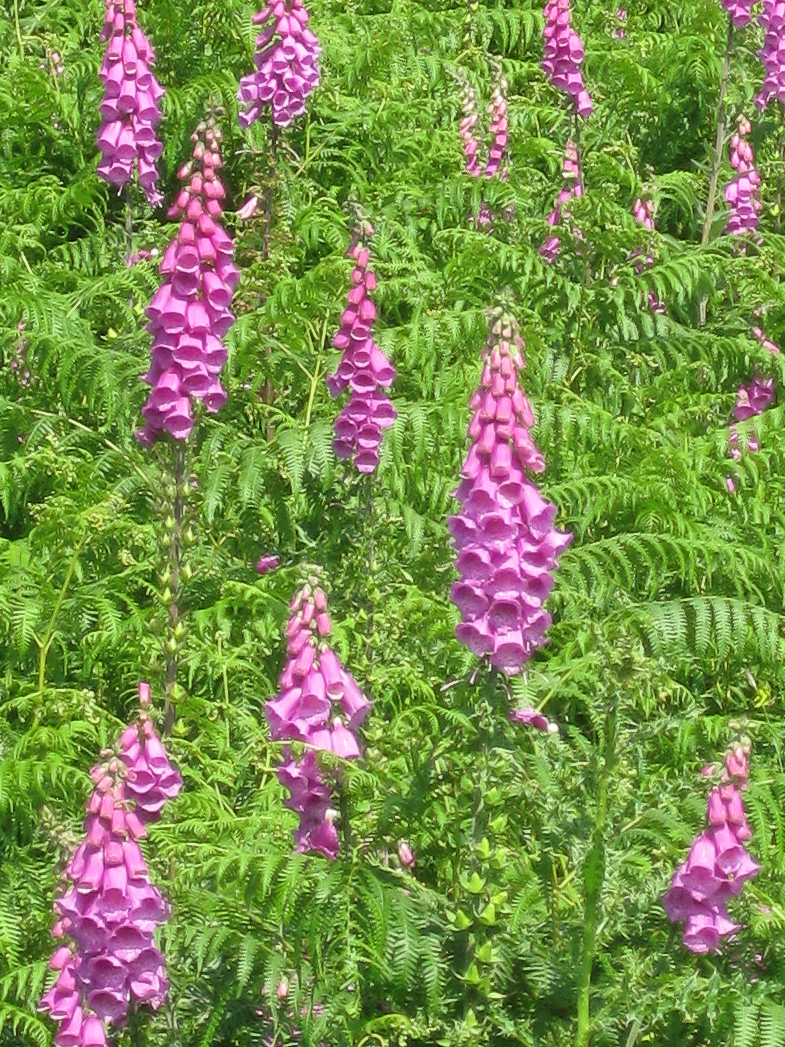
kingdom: Plantae
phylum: Tracheophyta
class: Magnoliopsida
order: Lamiales
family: Plantaginaceae
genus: Digitalis
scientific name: Digitalis purpurea
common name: Foxglove
